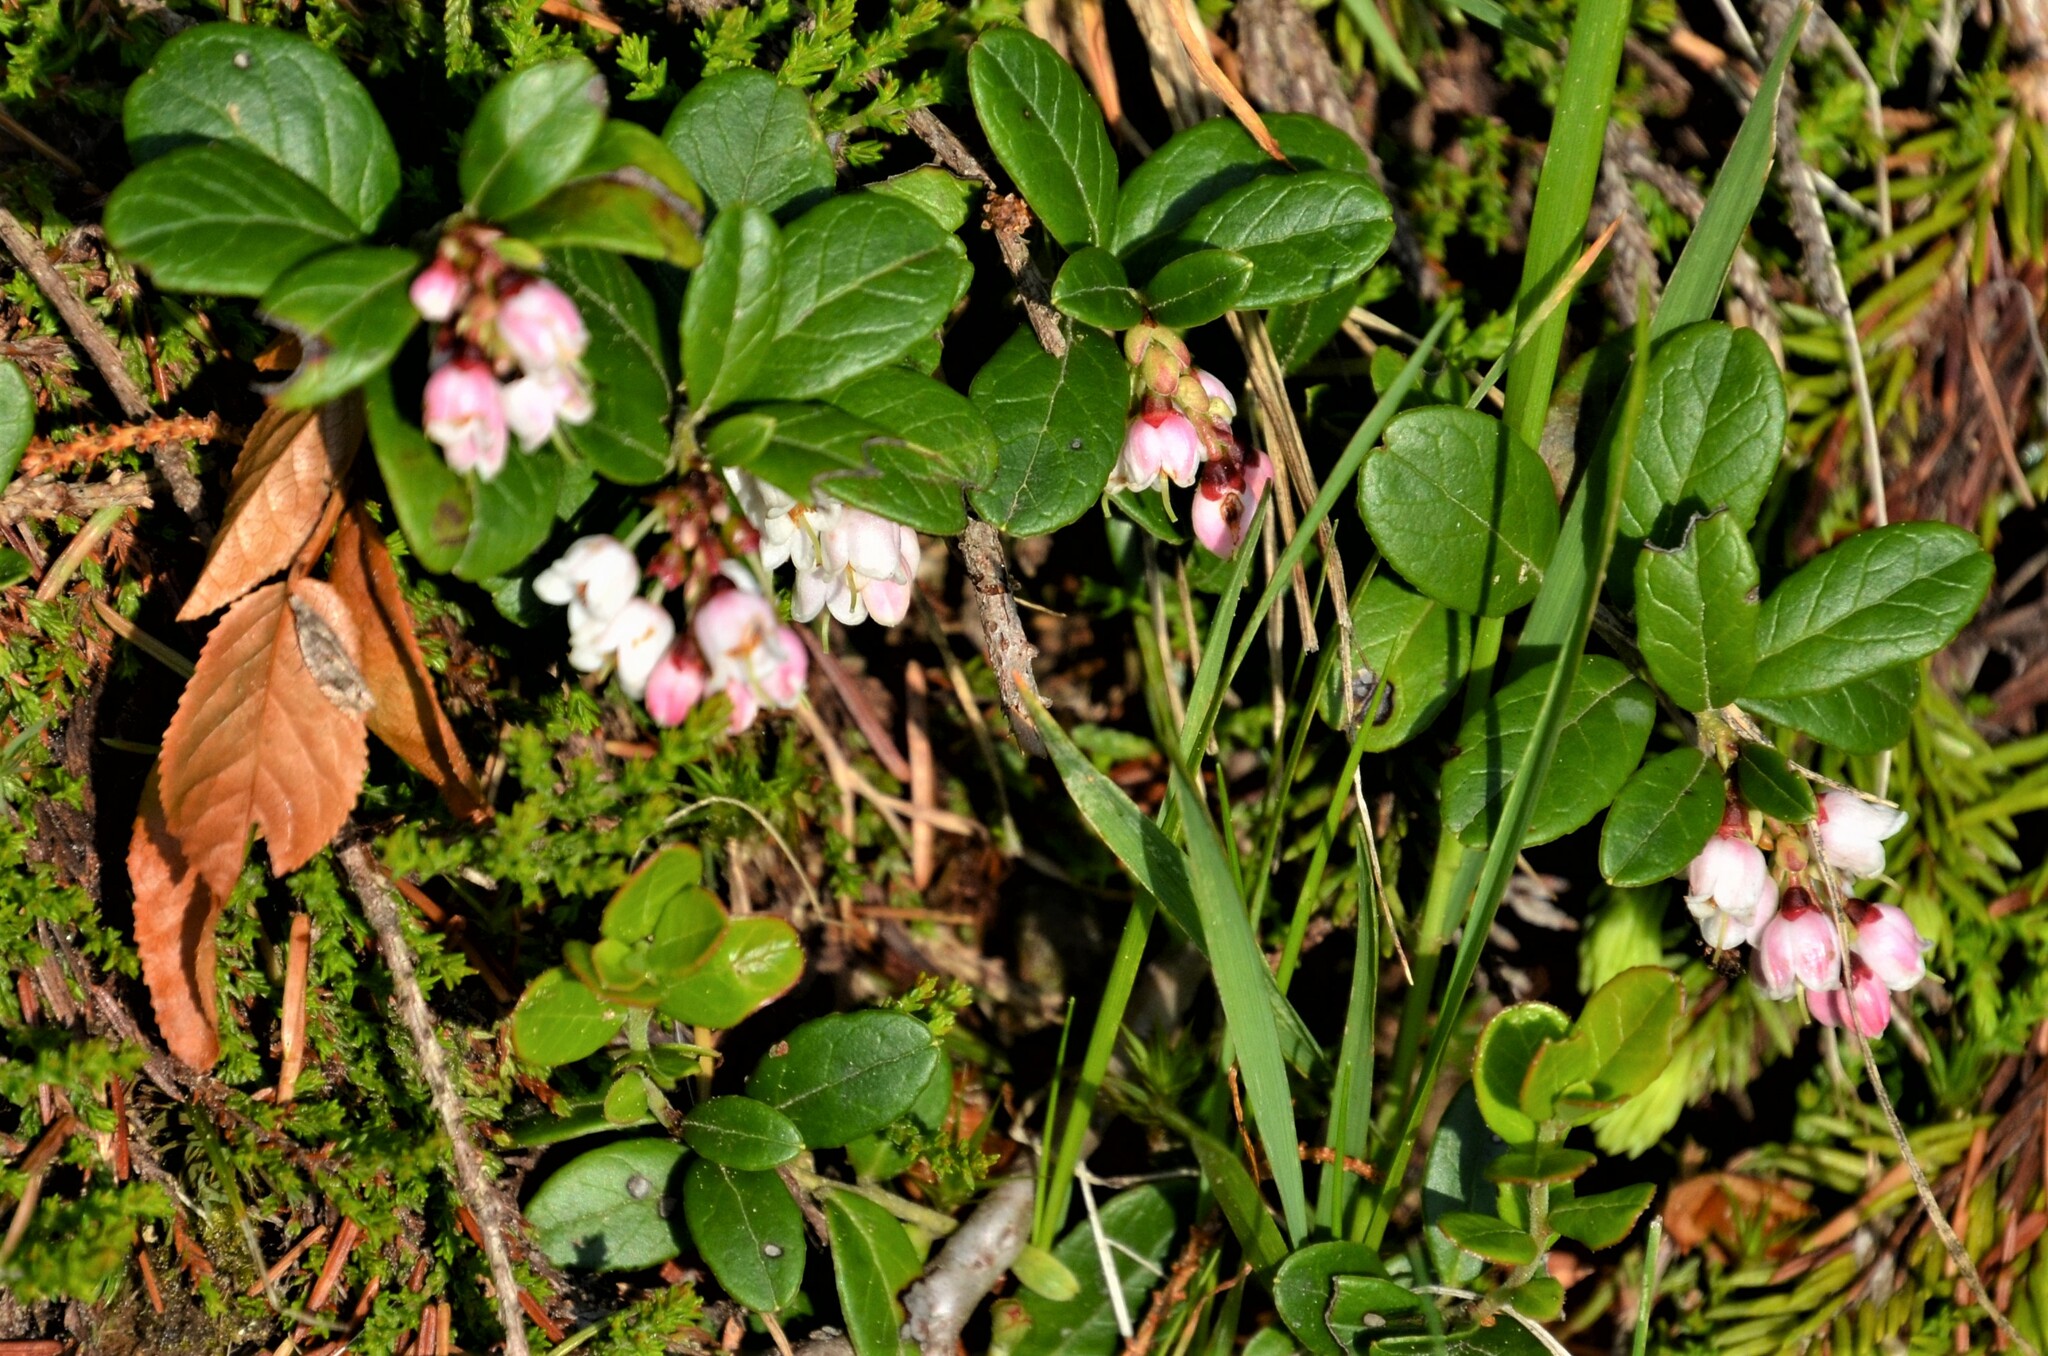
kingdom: Plantae
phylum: Tracheophyta
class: Magnoliopsida
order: Ericales
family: Ericaceae
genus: Vaccinium
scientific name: Vaccinium vitis-idaea
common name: Cowberry
